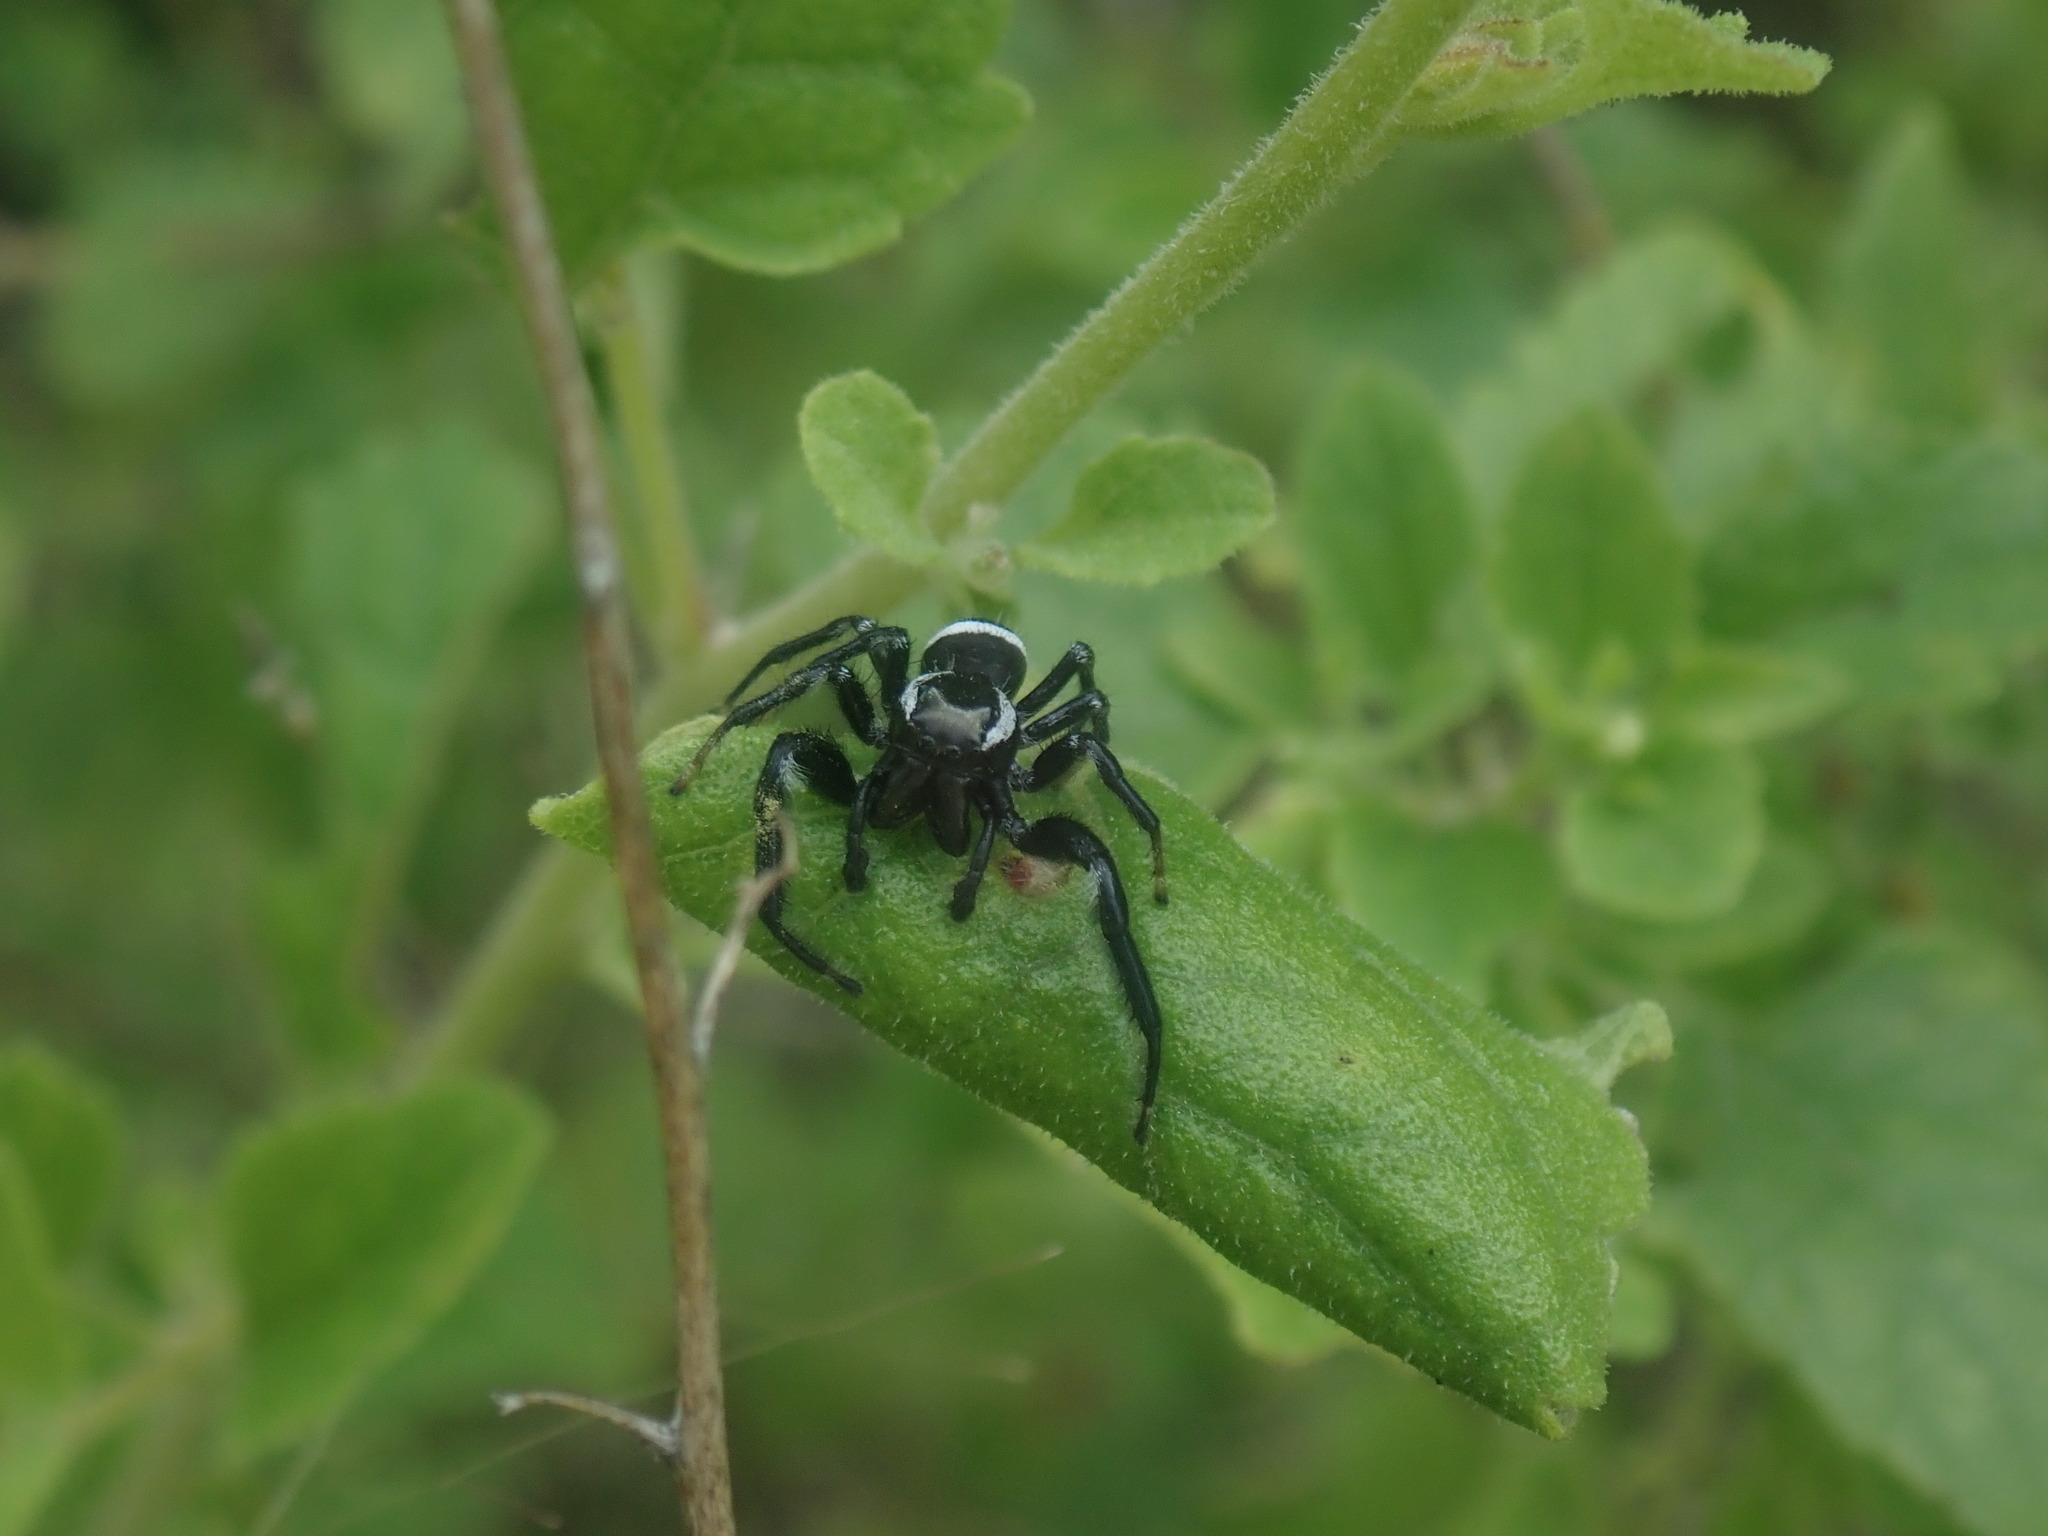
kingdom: Animalia
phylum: Arthropoda
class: Arachnida
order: Araneae
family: Salticidae
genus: Paraphidippus
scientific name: Paraphidippus aurantius
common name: Jumping spiders
